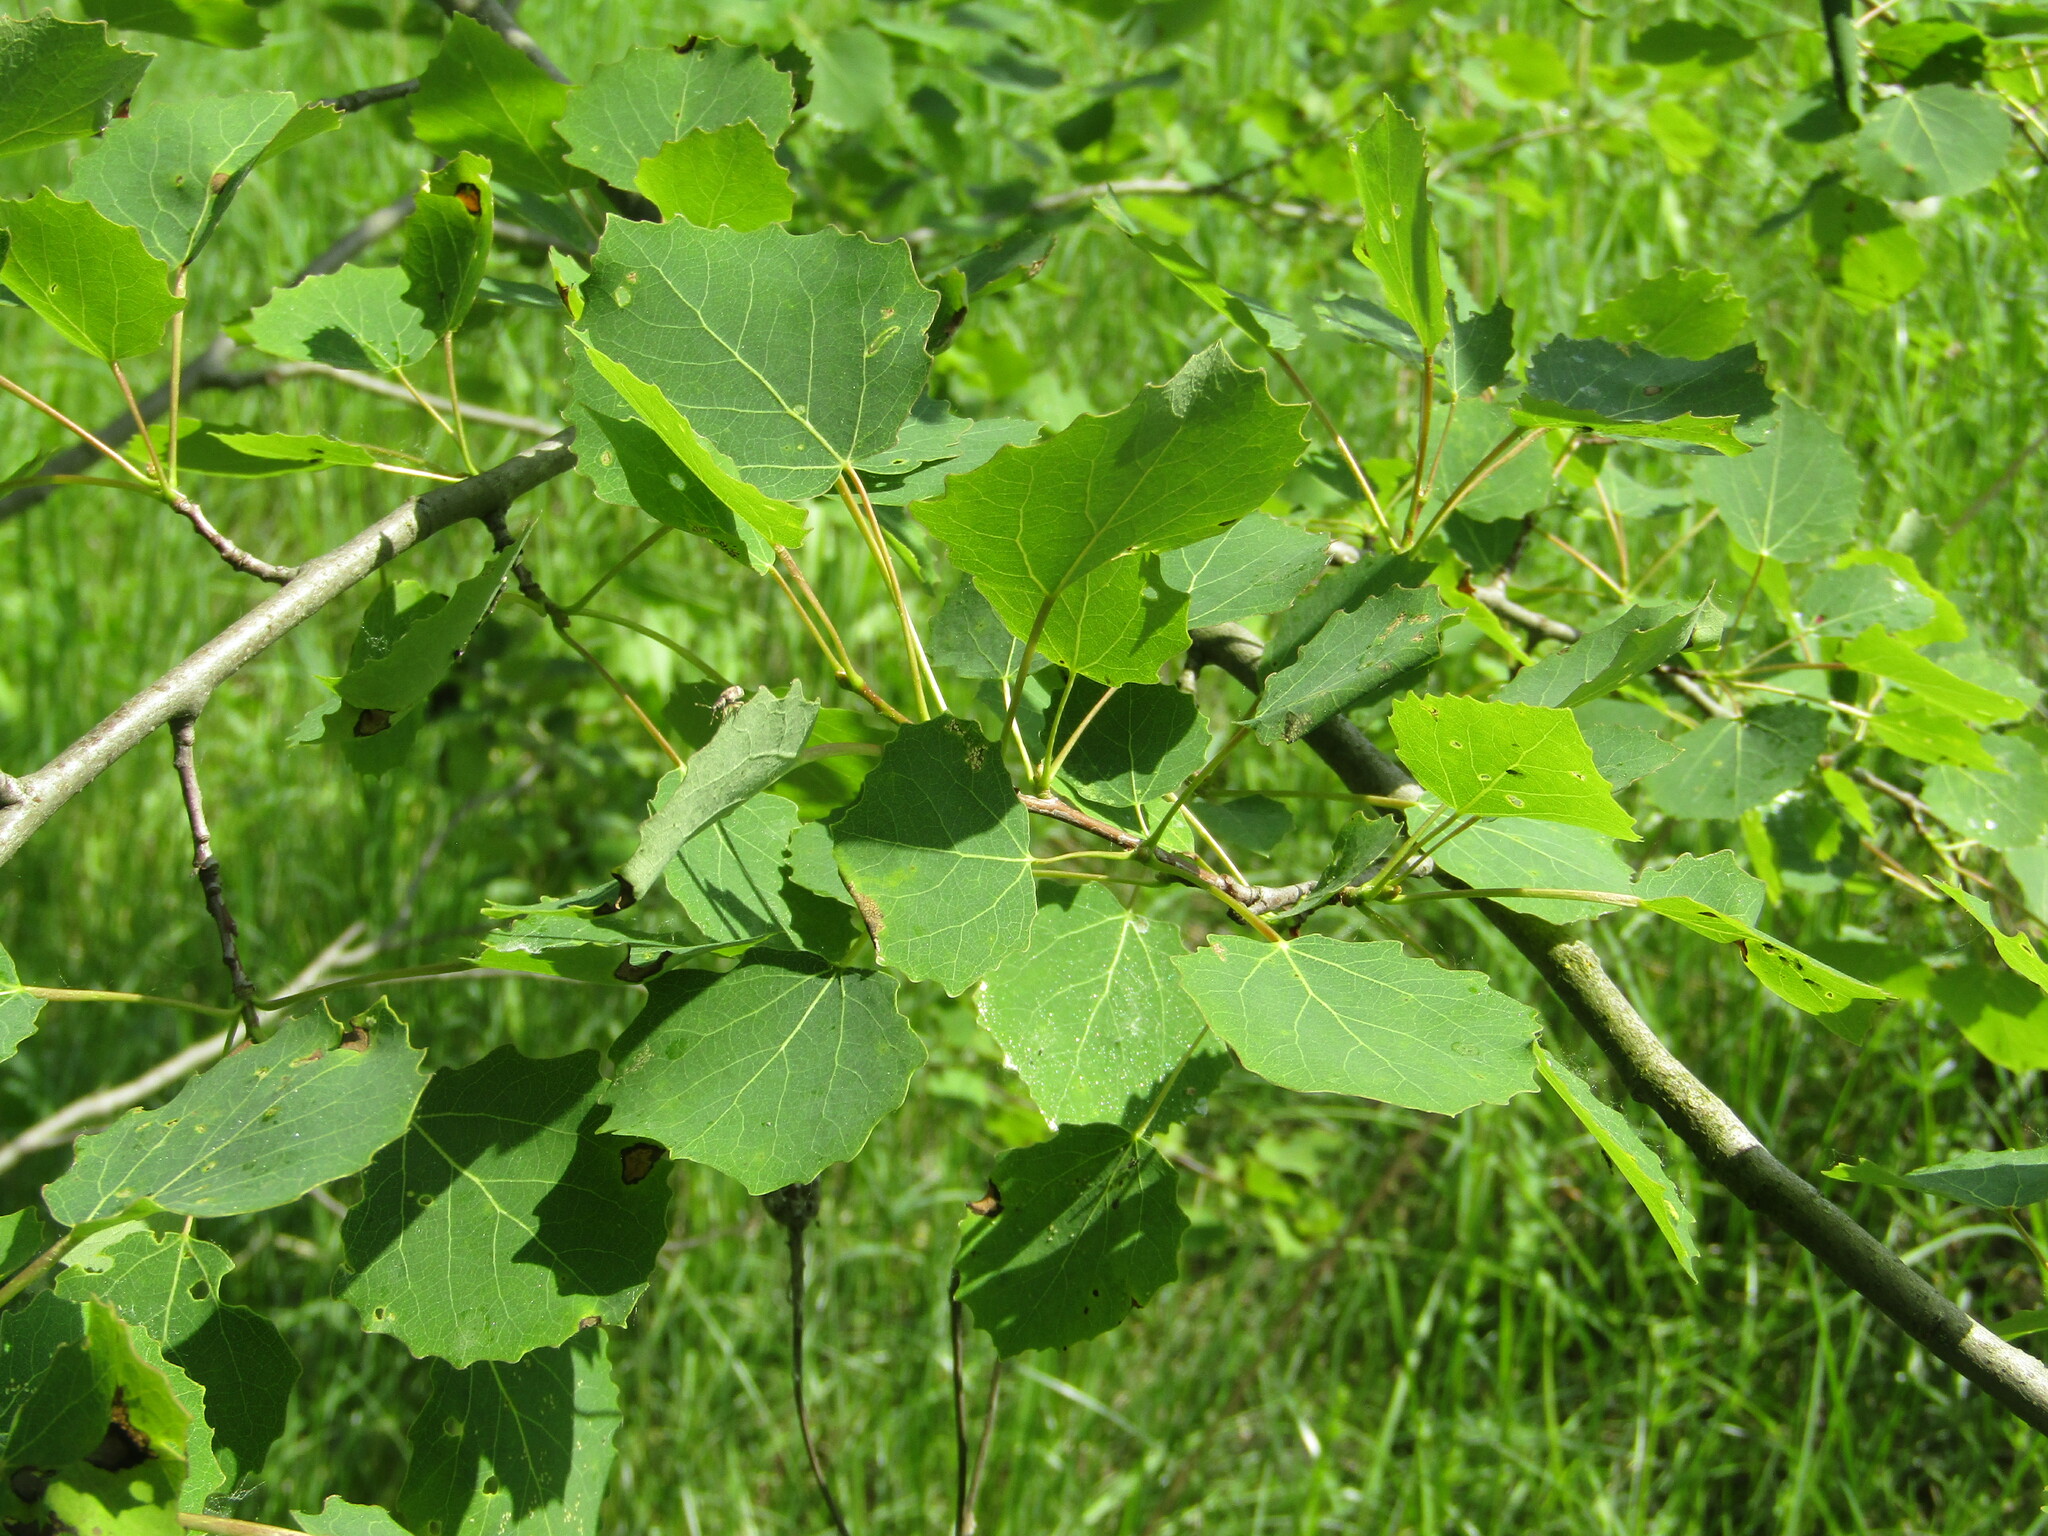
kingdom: Plantae
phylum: Tracheophyta
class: Magnoliopsida
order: Malpighiales
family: Salicaceae
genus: Populus
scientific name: Populus tremula
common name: European aspen
